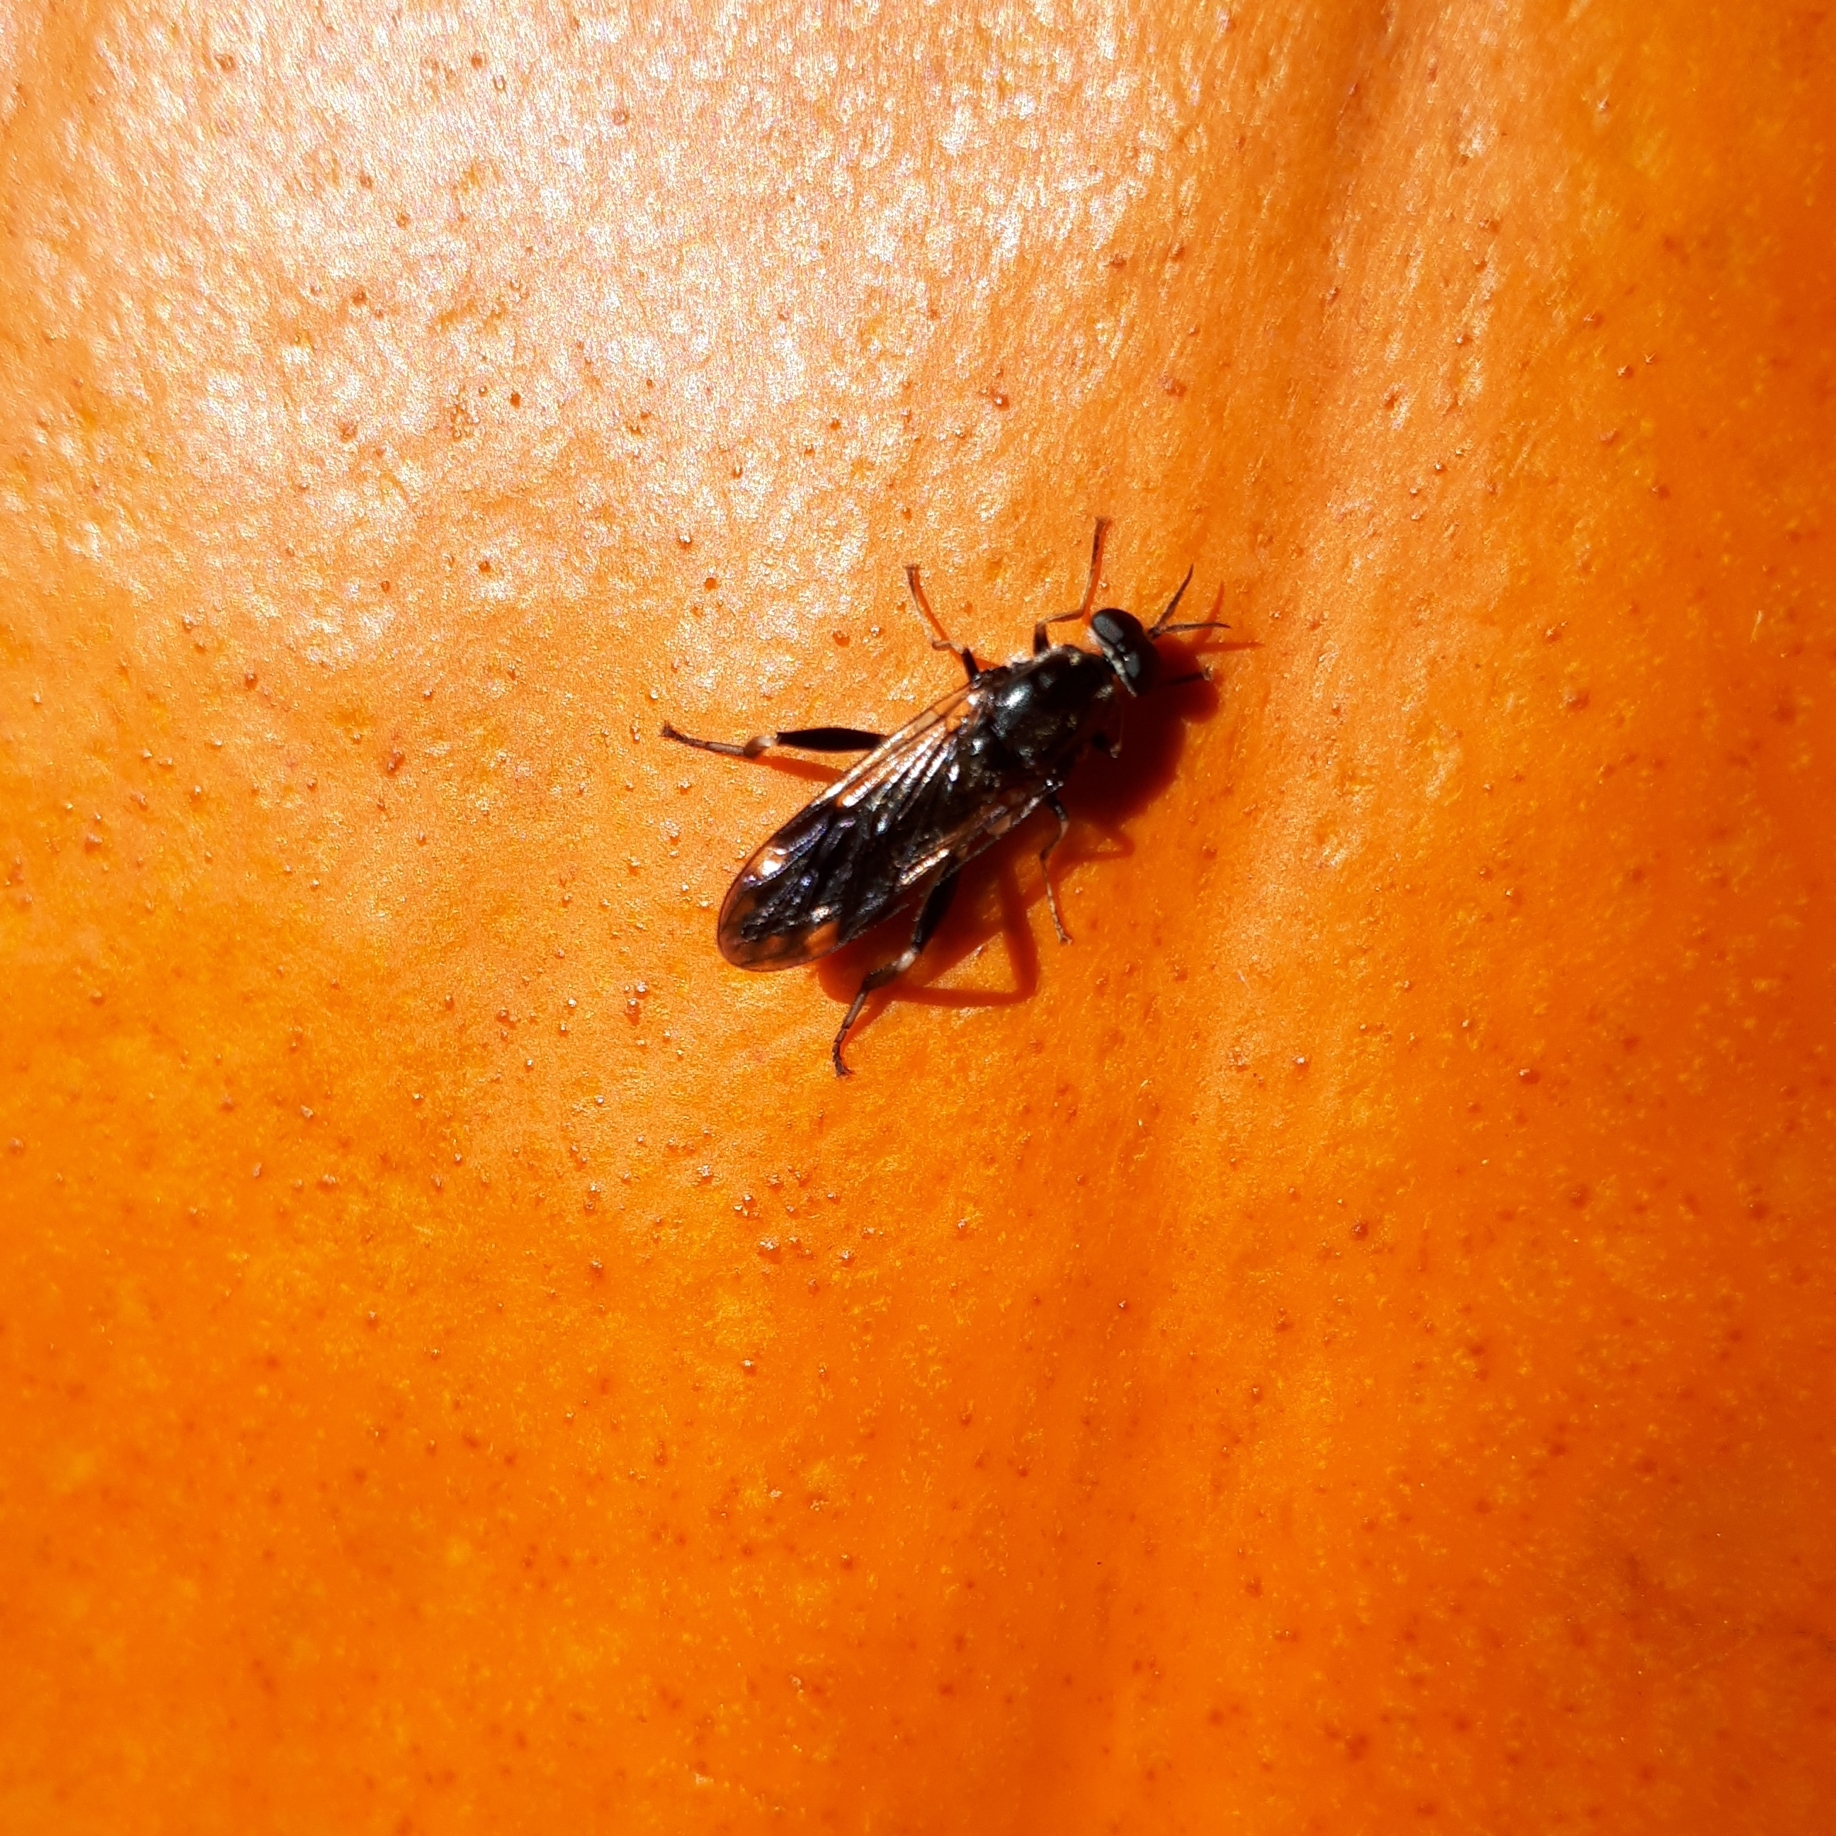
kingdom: Animalia
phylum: Arthropoda
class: Insecta
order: Diptera
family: Stratiomyidae
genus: Exaireta
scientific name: Exaireta spinigera
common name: Blue soldier fly
